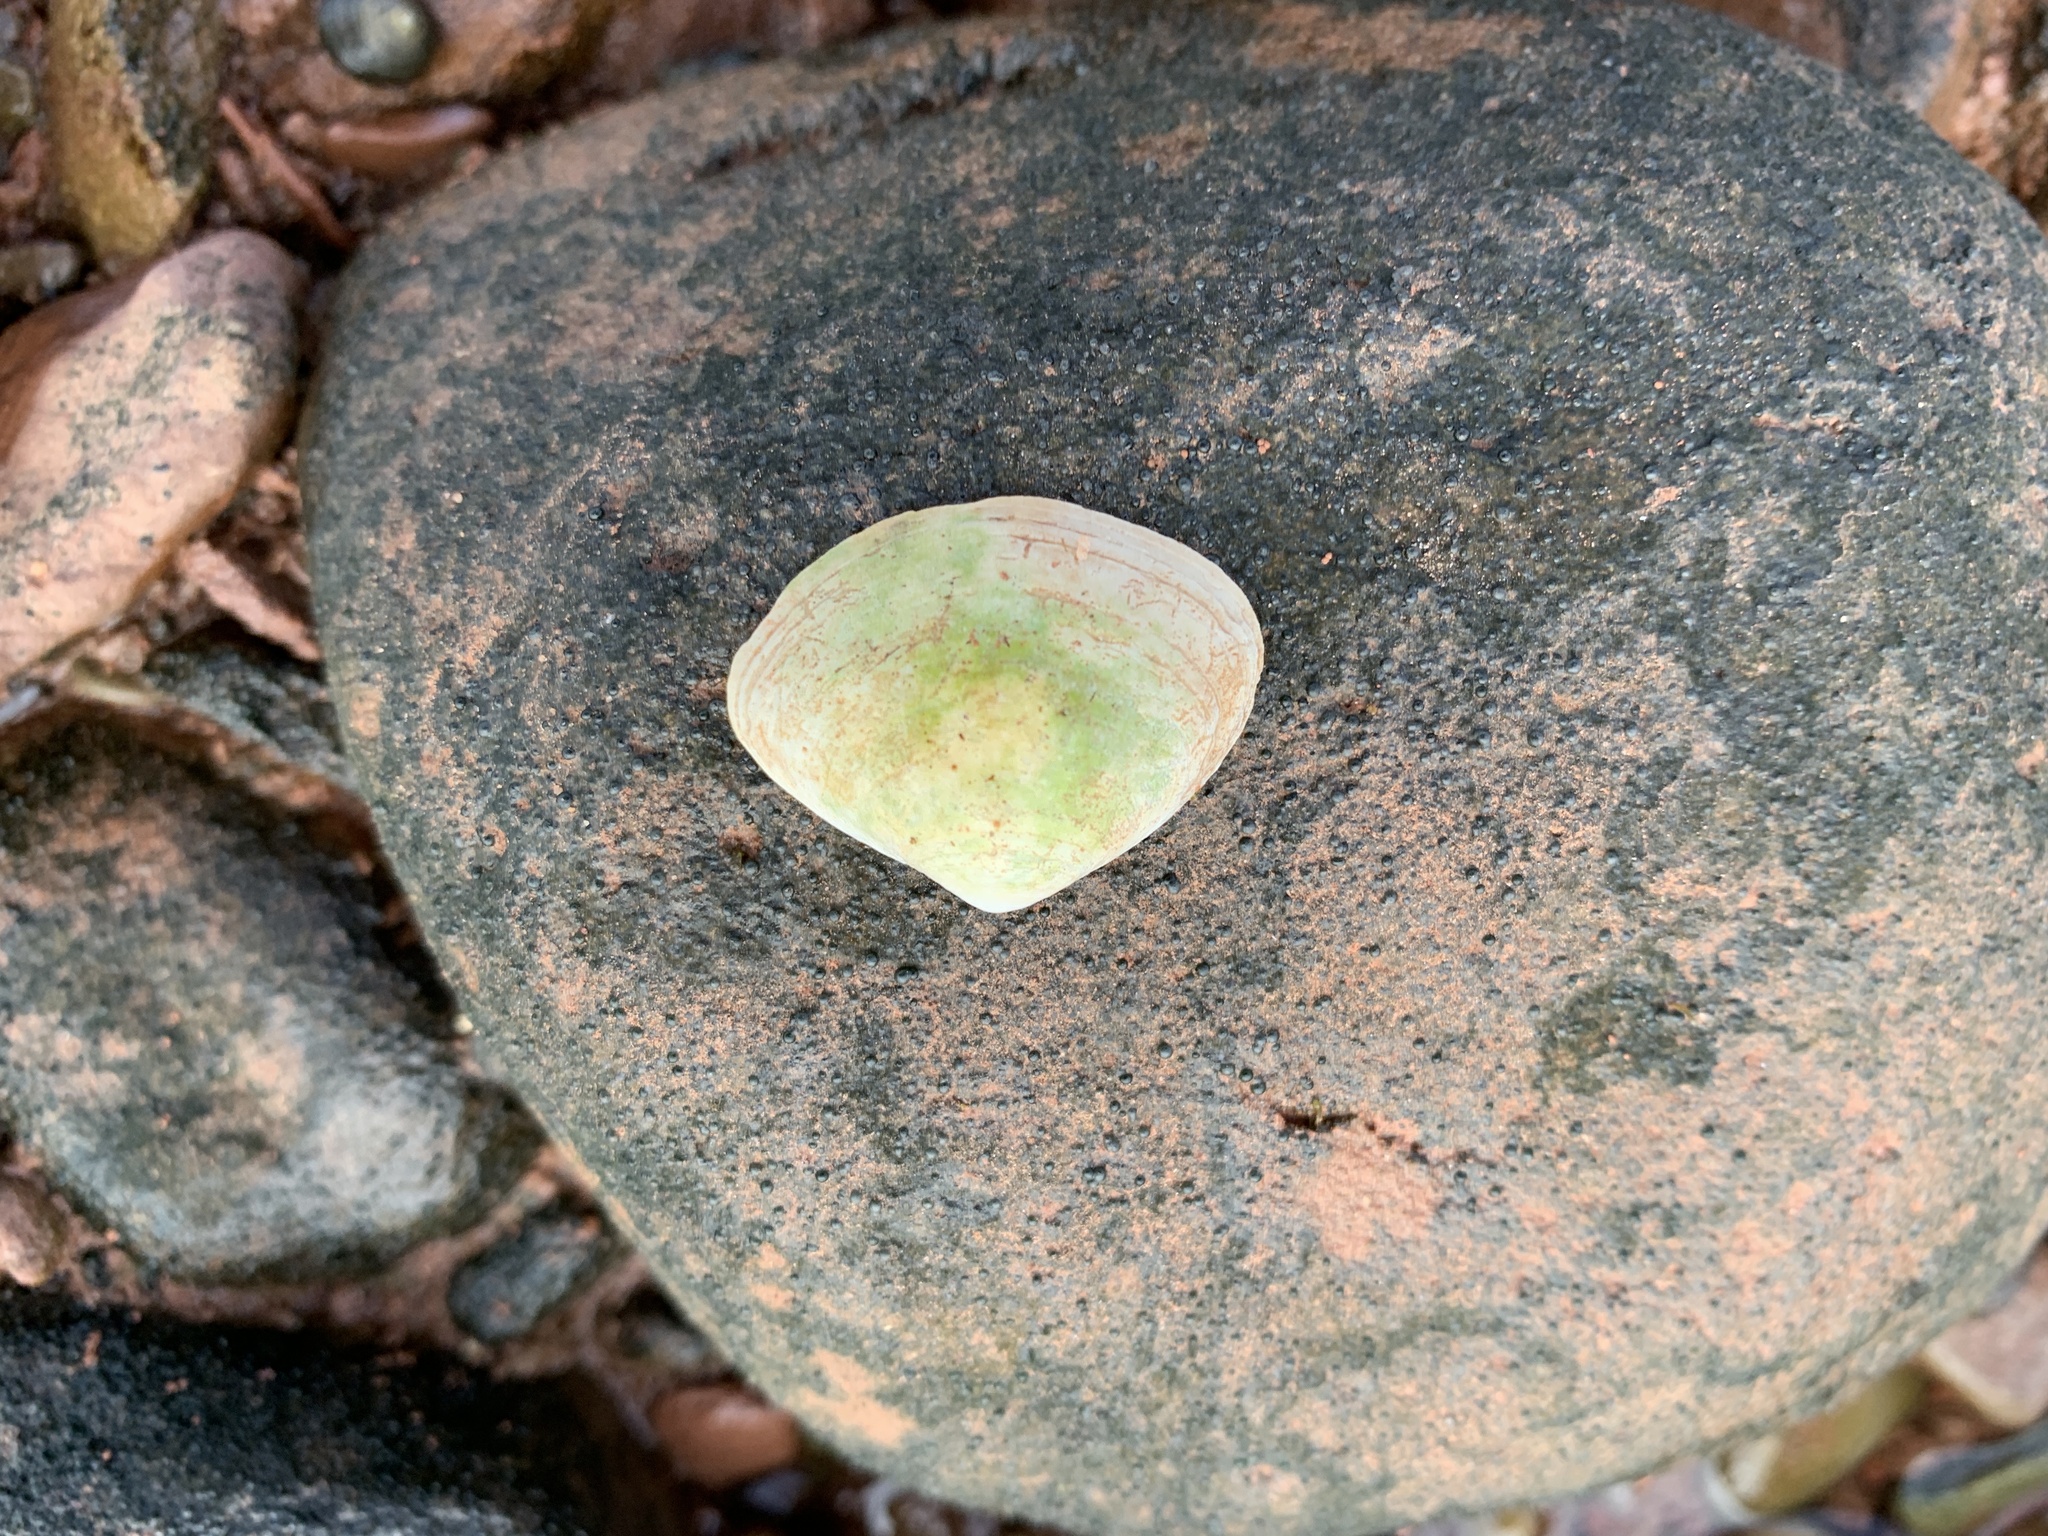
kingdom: Animalia
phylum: Mollusca
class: Bivalvia
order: Venerida
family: Mactridae
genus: Spisula
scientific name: Spisula solidissima
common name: Atlantic surf clam
